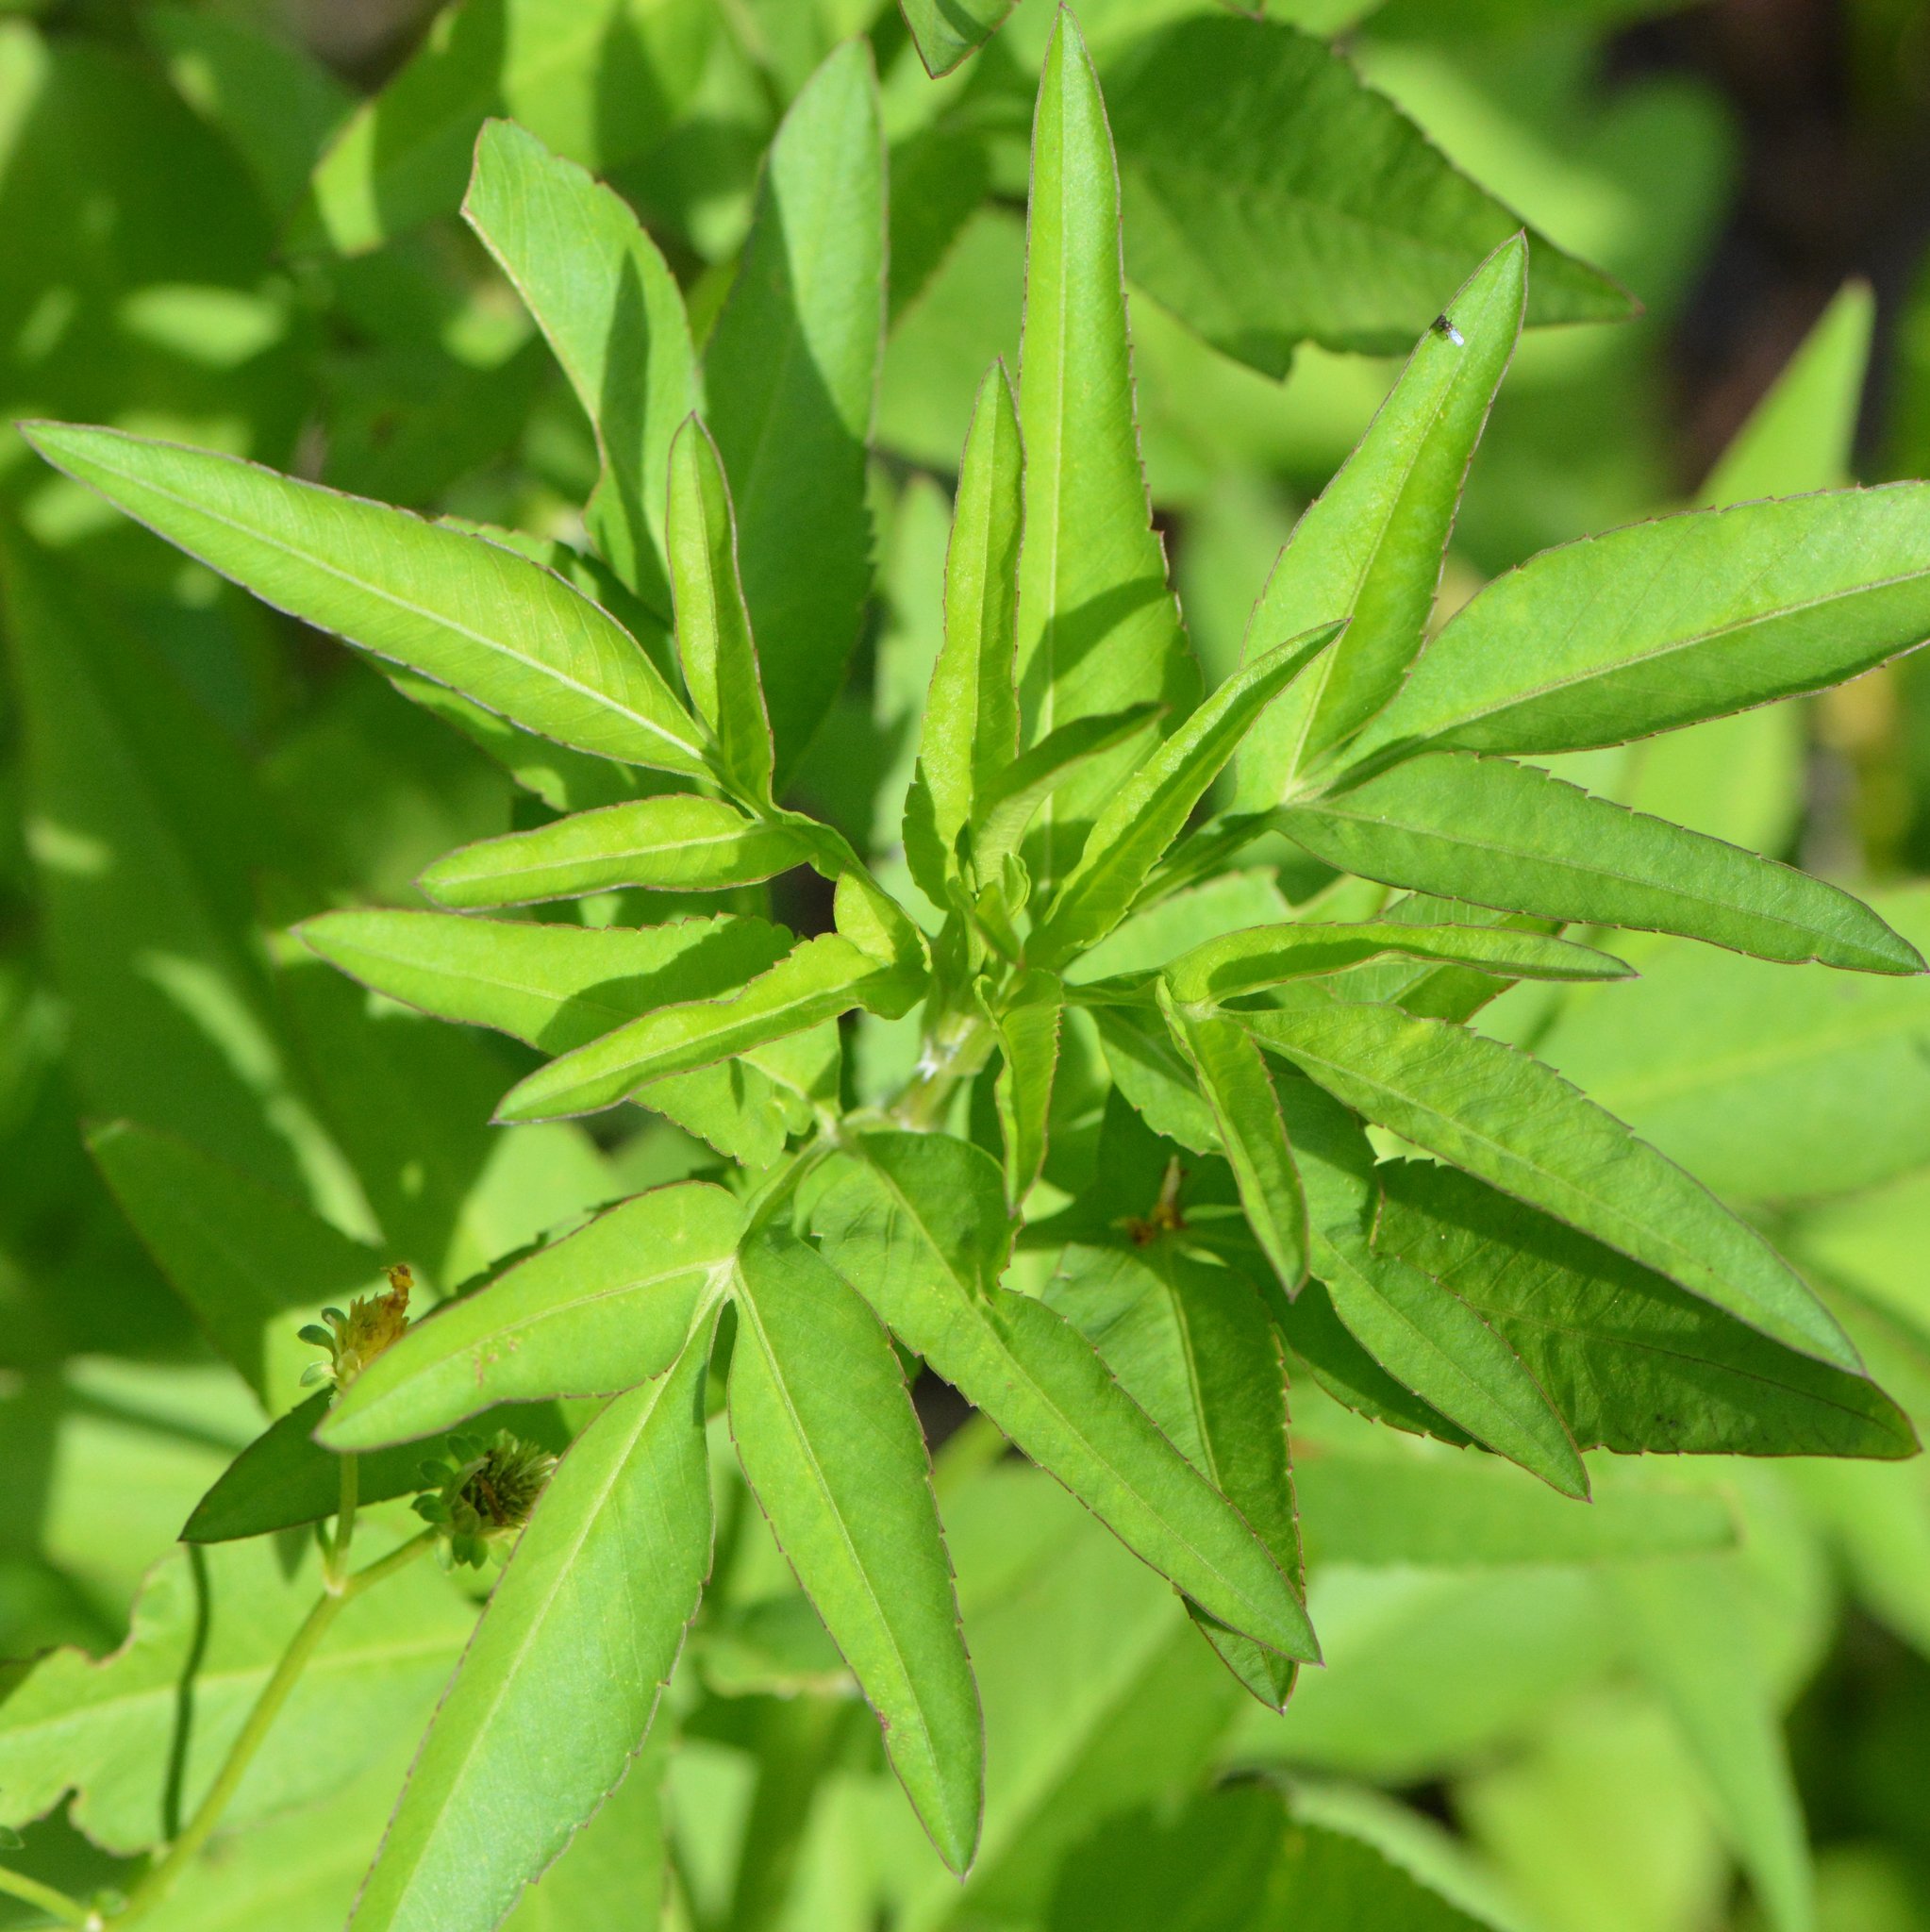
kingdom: Plantae
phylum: Tracheophyta
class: Magnoliopsida
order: Asterales
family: Asteraceae
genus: Bidens
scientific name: Bidens alba
